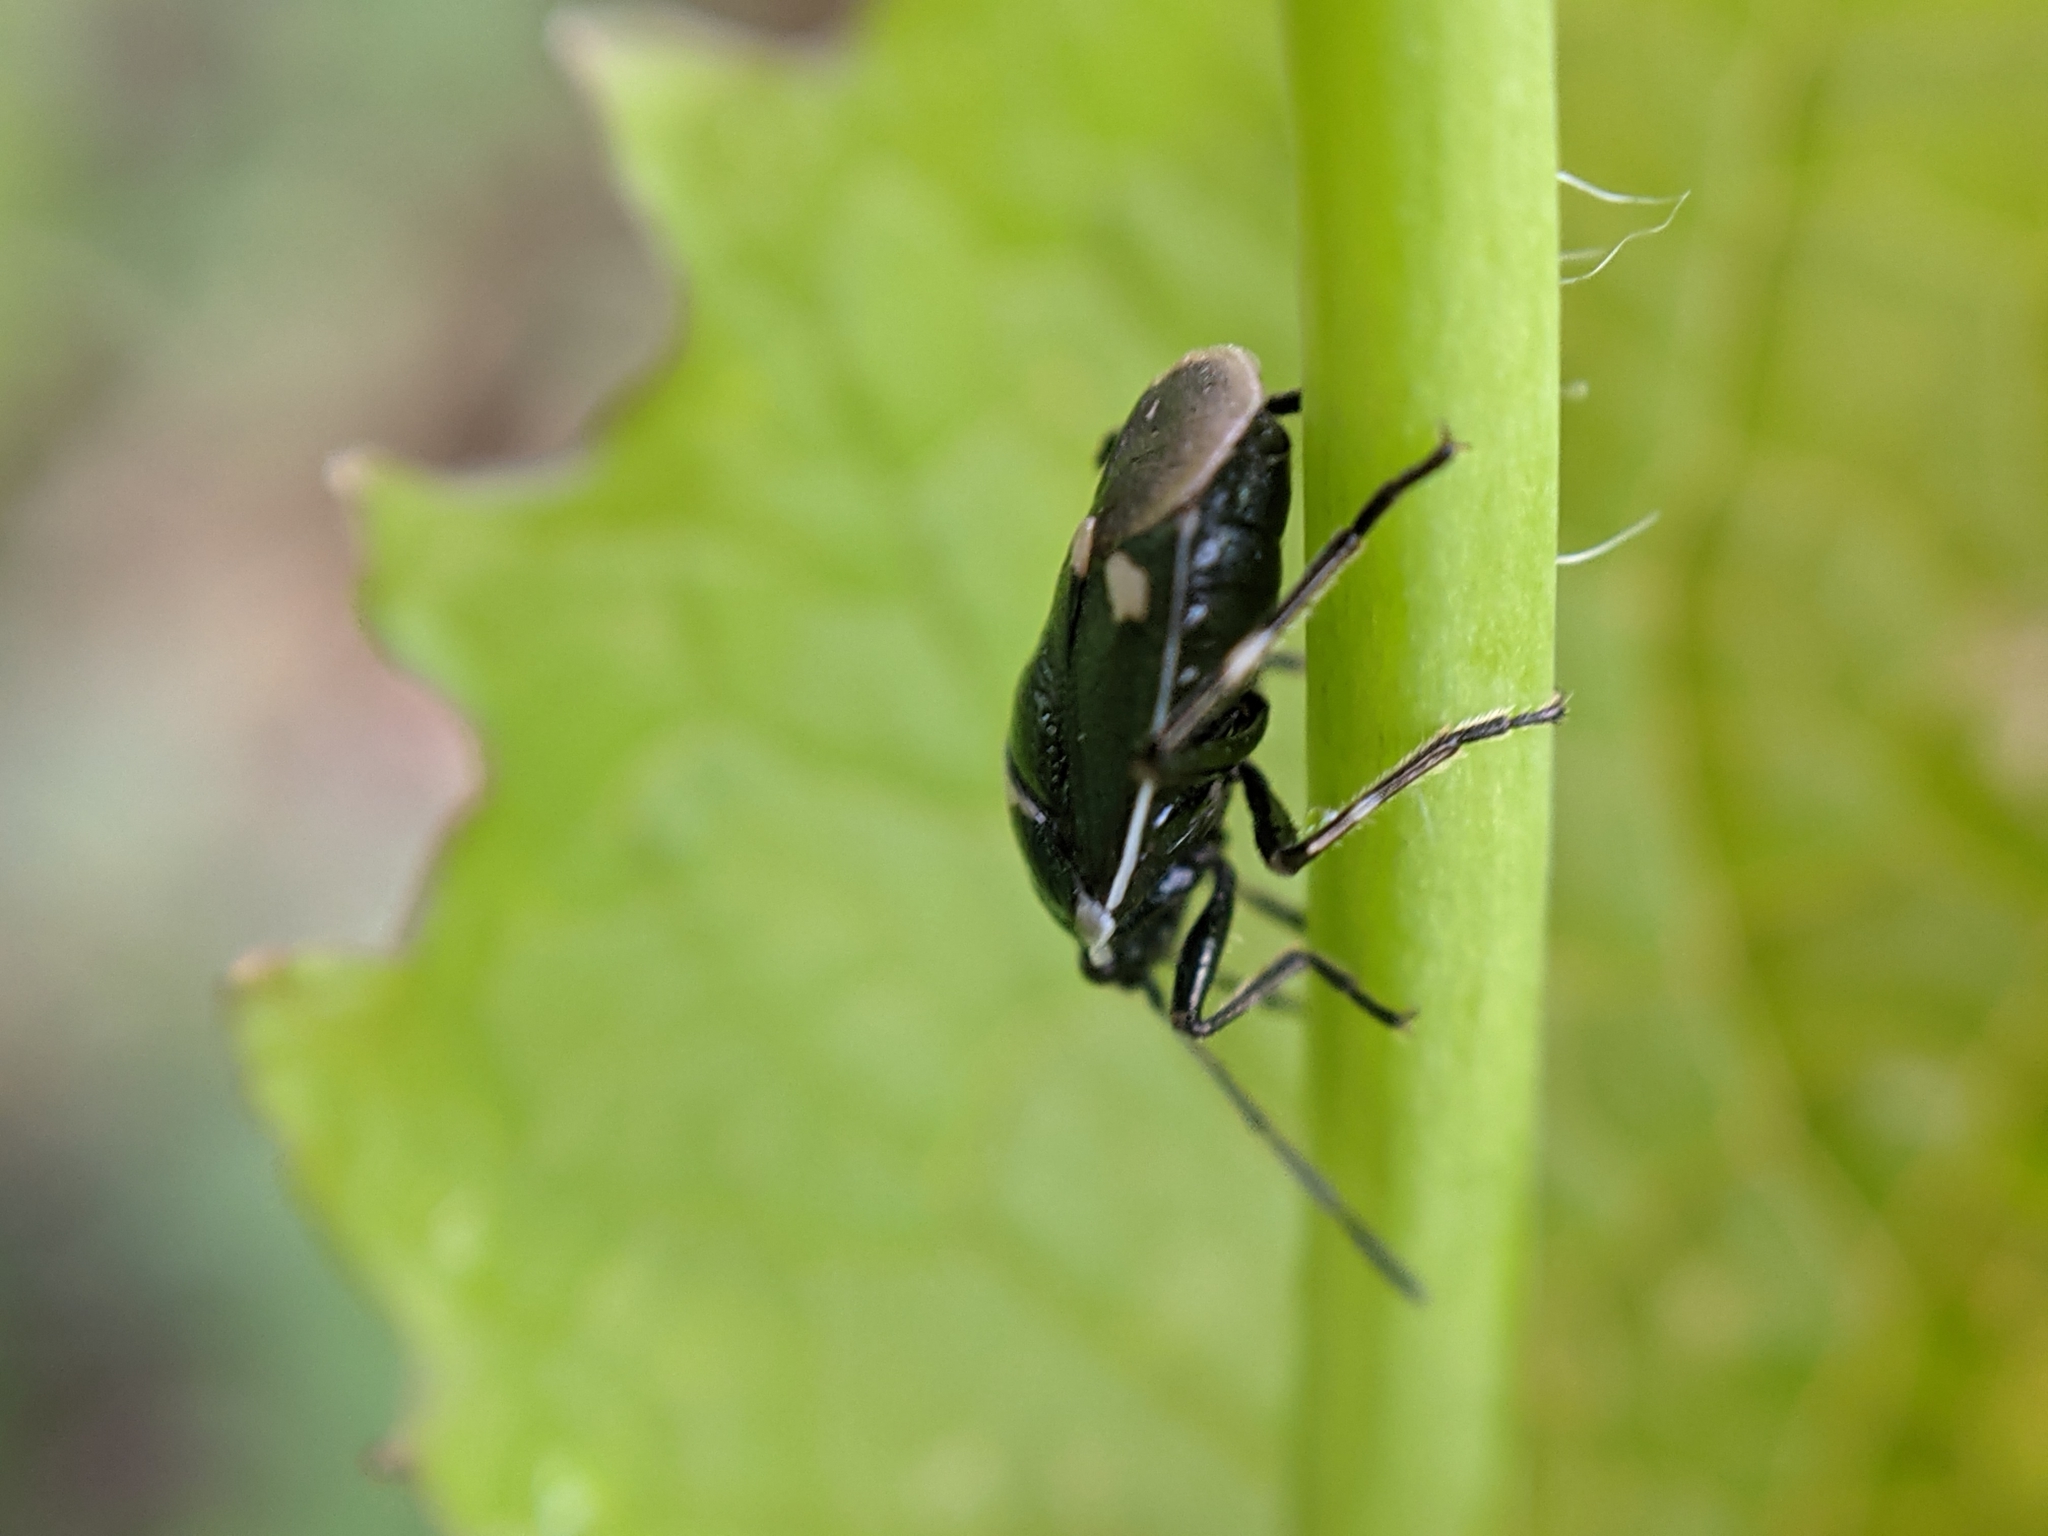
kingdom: Animalia
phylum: Arthropoda
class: Insecta
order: Hemiptera
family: Pentatomidae
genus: Eurydema
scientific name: Eurydema oleracea
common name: Cabbage bug
